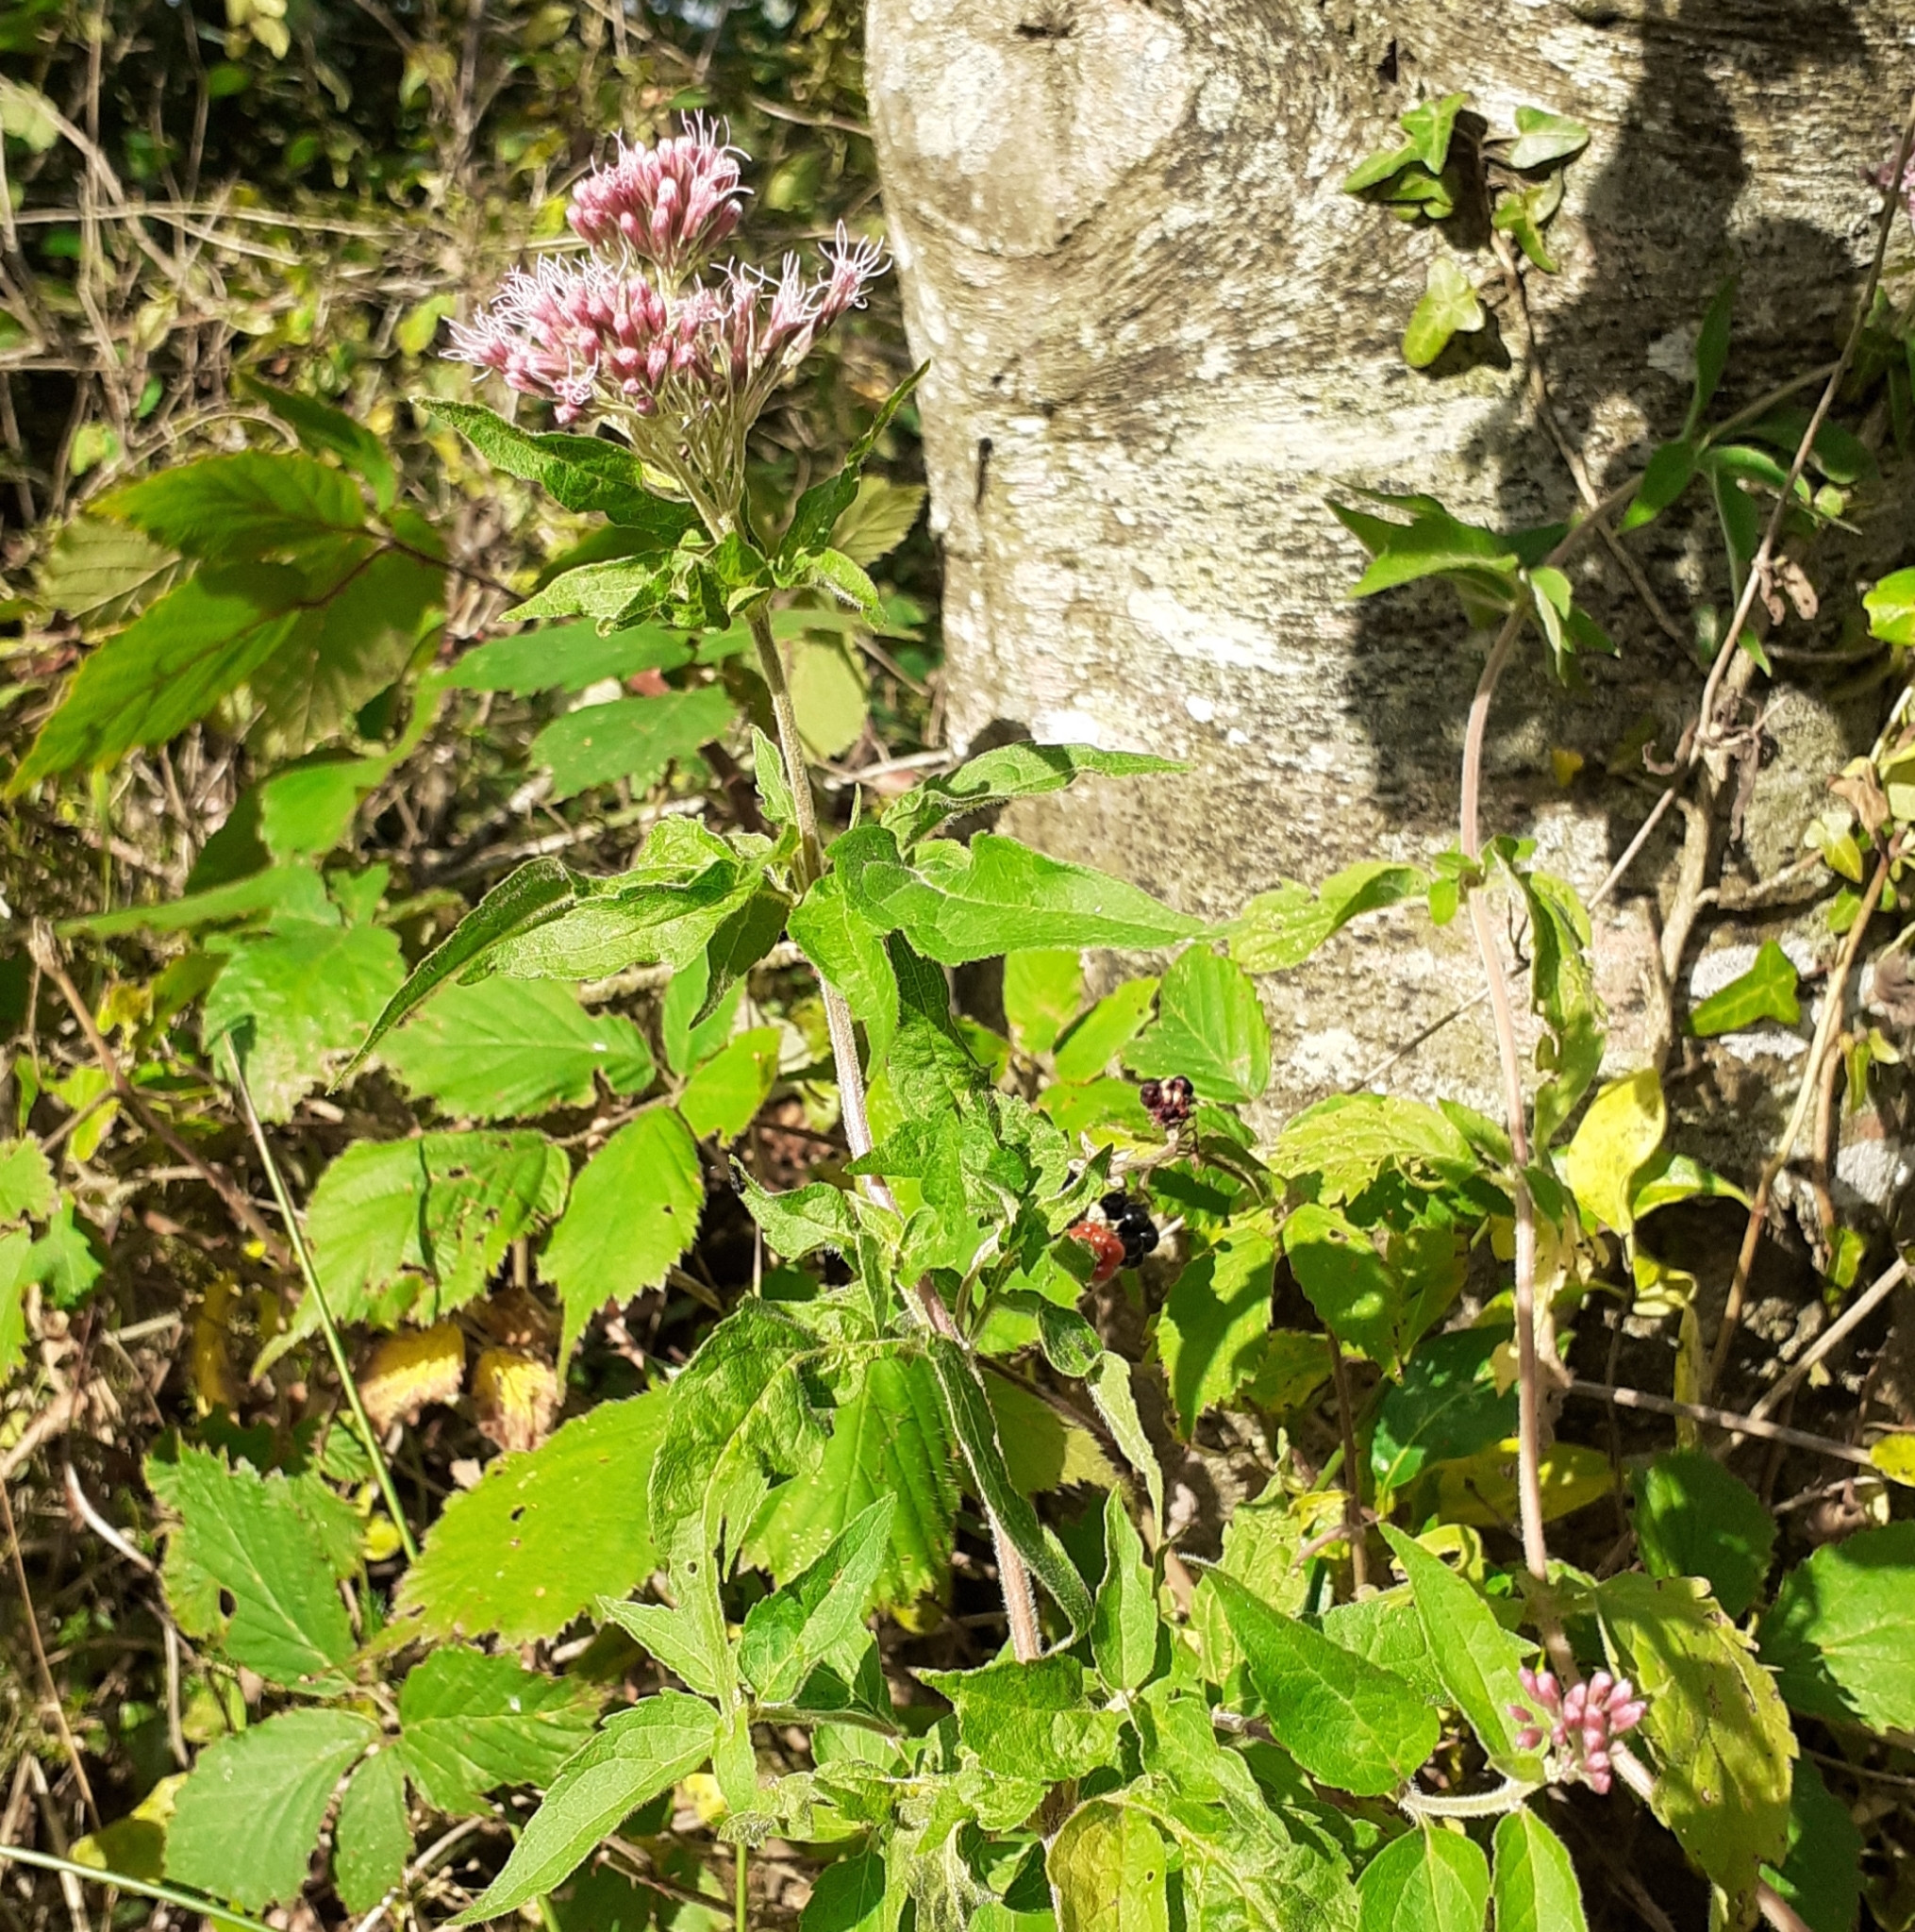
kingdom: Plantae
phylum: Tracheophyta
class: Magnoliopsida
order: Asterales
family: Asteraceae
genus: Eupatorium
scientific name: Eupatorium cannabinum
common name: Hemp-agrimony
